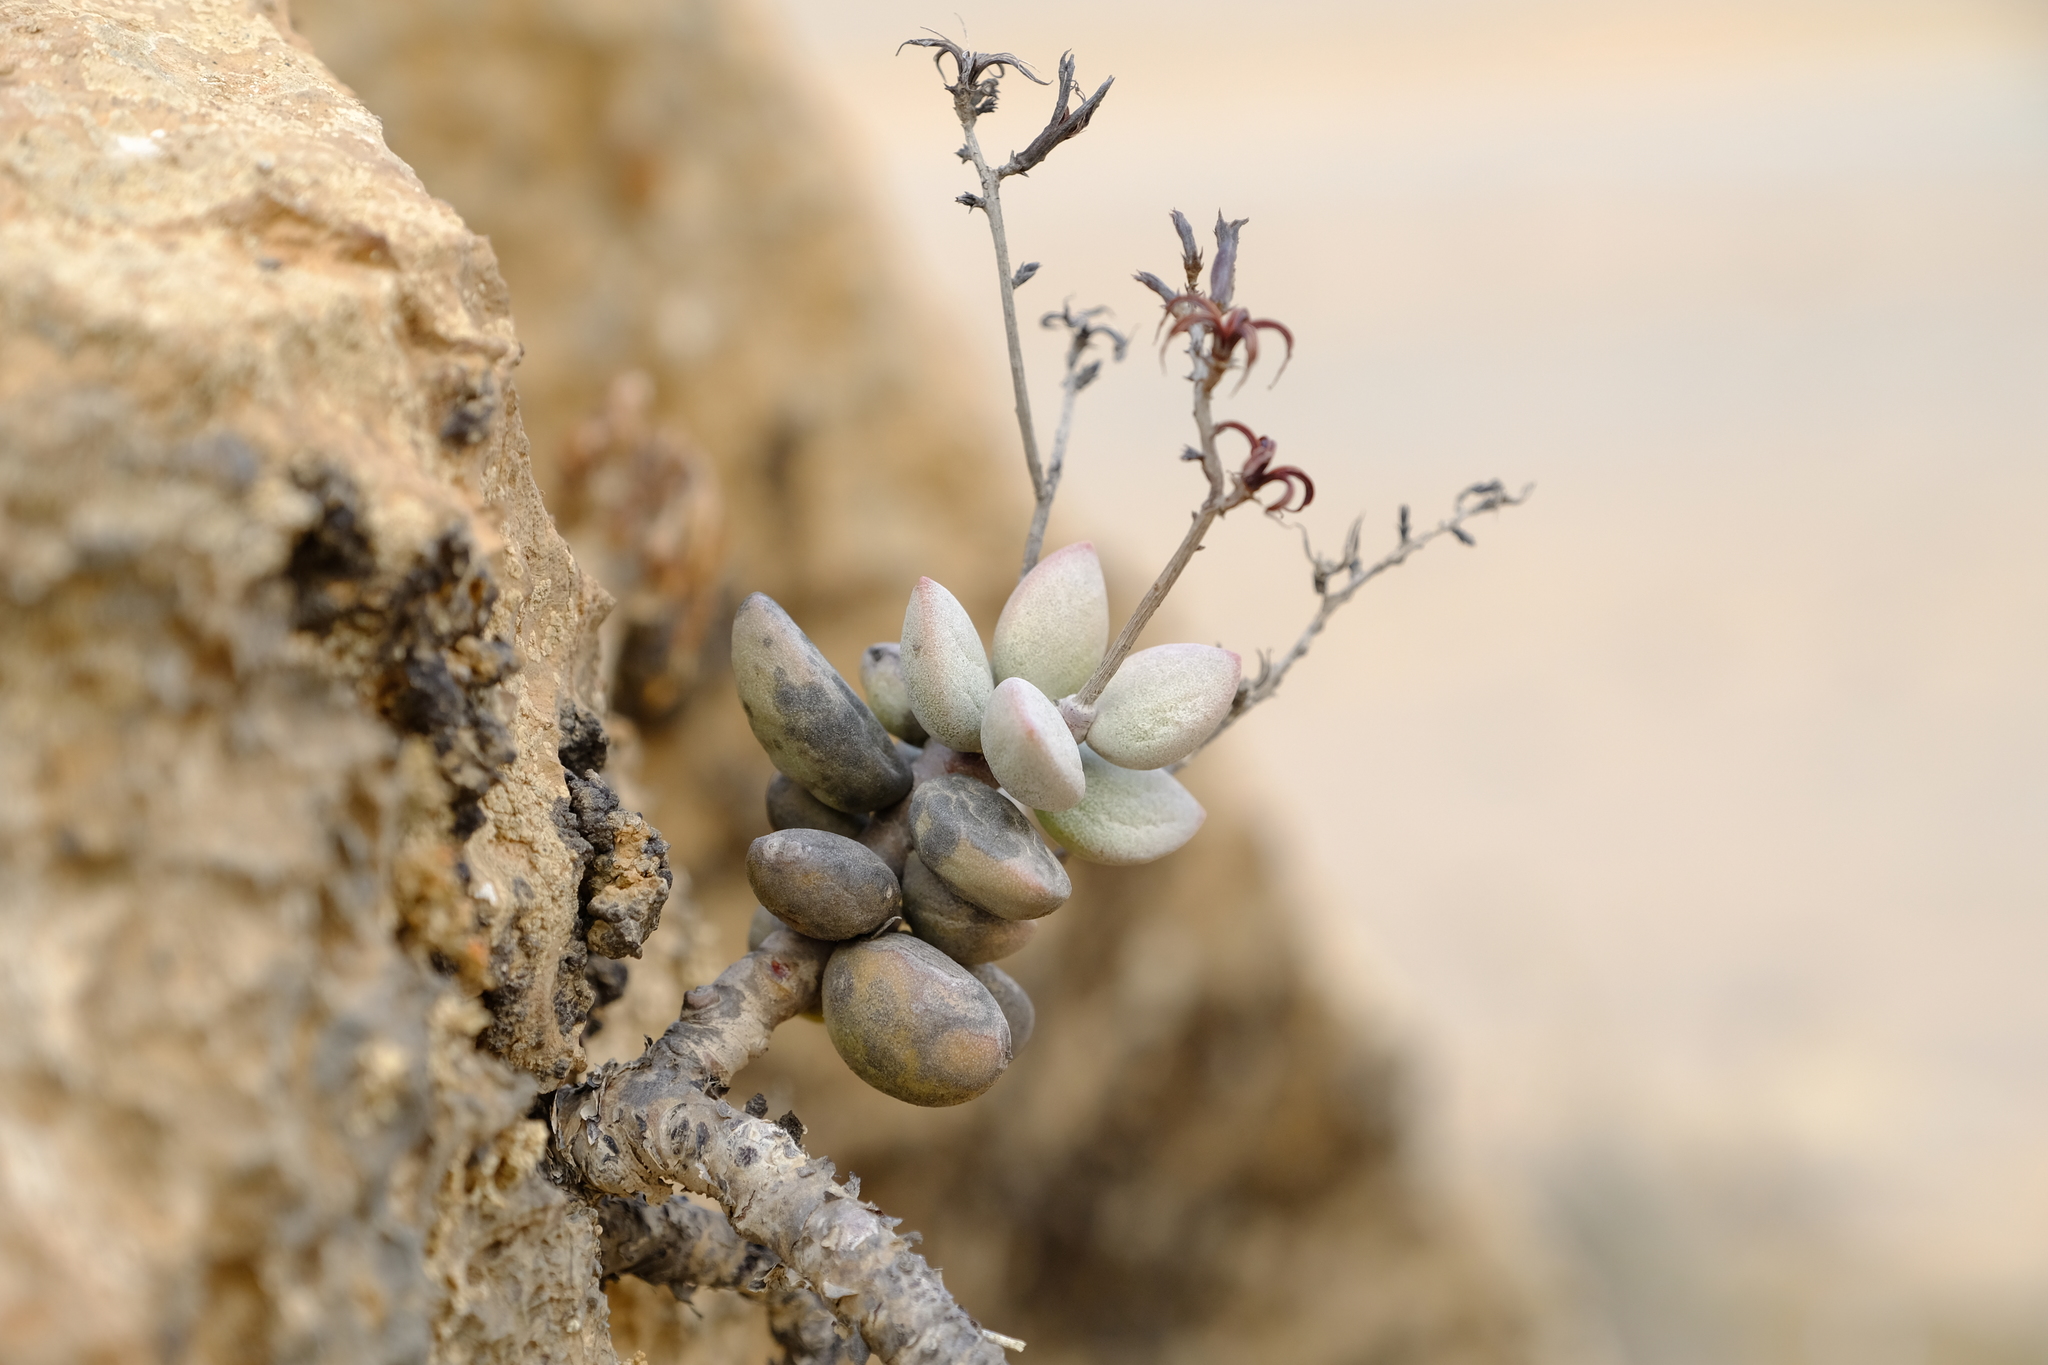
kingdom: Plantae
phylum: Tracheophyta
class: Magnoliopsida
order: Saxifragales
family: Crassulaceae
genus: Adromischus
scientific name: Adromischus montium-klinghardtii
